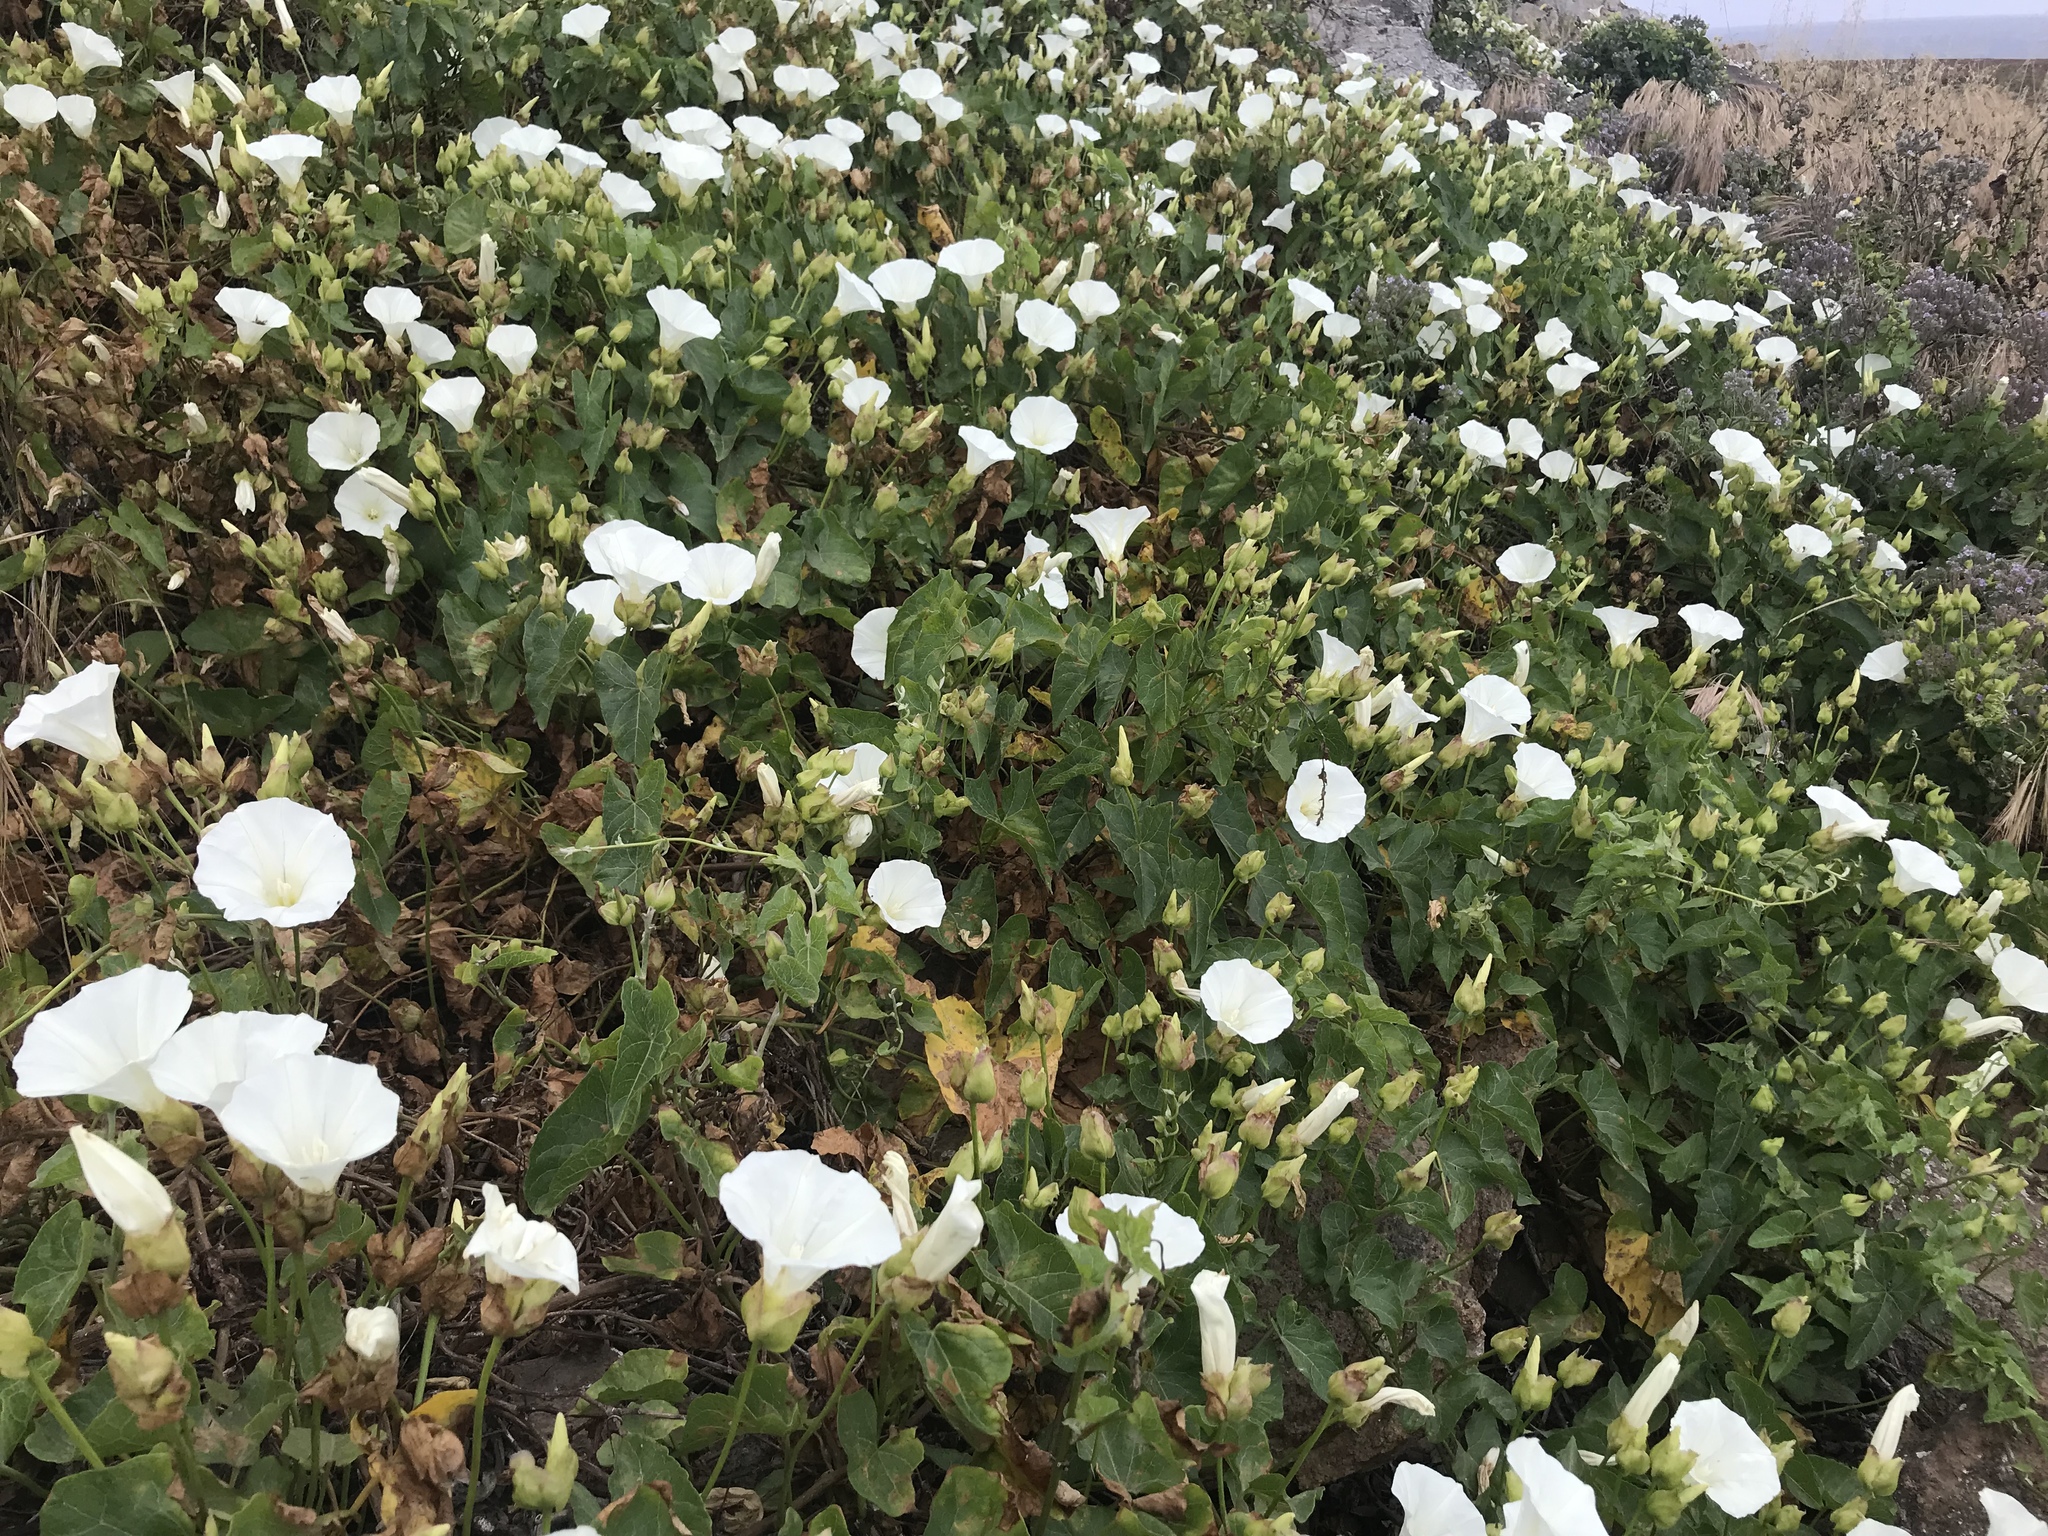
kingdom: Plantae
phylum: Tracheophyta
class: Magnoliopsida
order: Solanales
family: Convolvulaceae
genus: Calystegia
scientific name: Calystegia macrostegia
